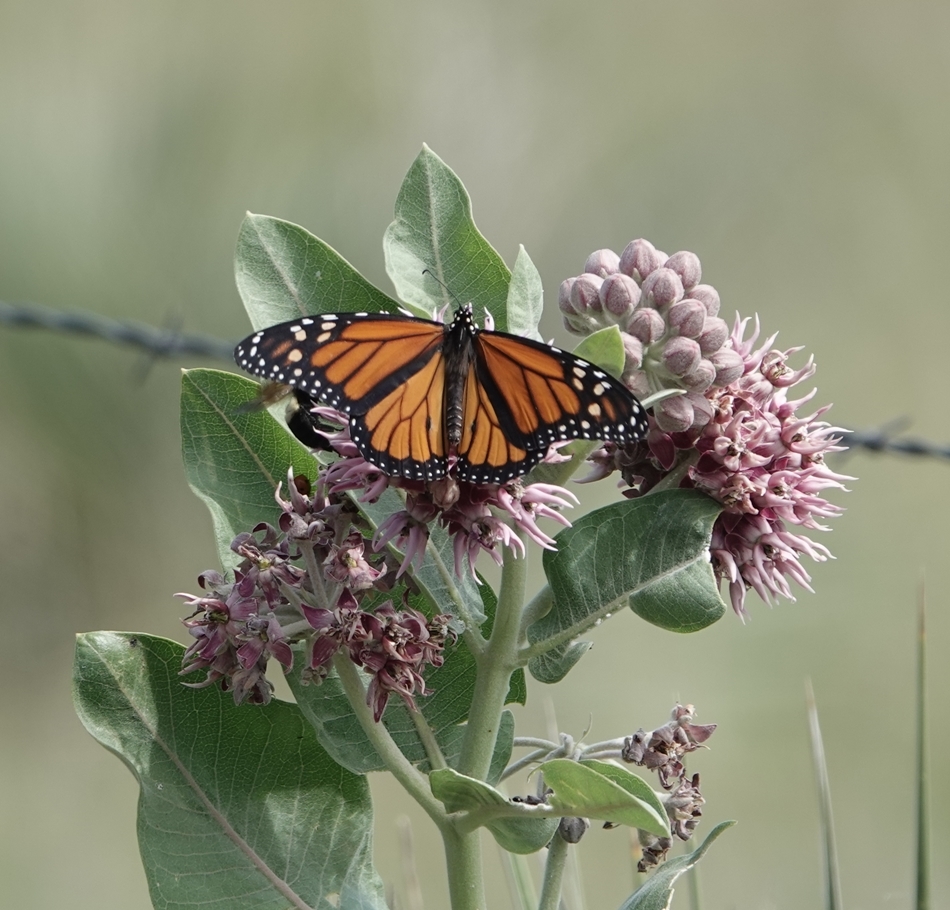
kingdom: Animalia
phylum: Arthropoda
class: Insecta
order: Lepidoptera
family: Nymphalidae
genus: Danaus
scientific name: Danaus plexippus
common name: Monarch
